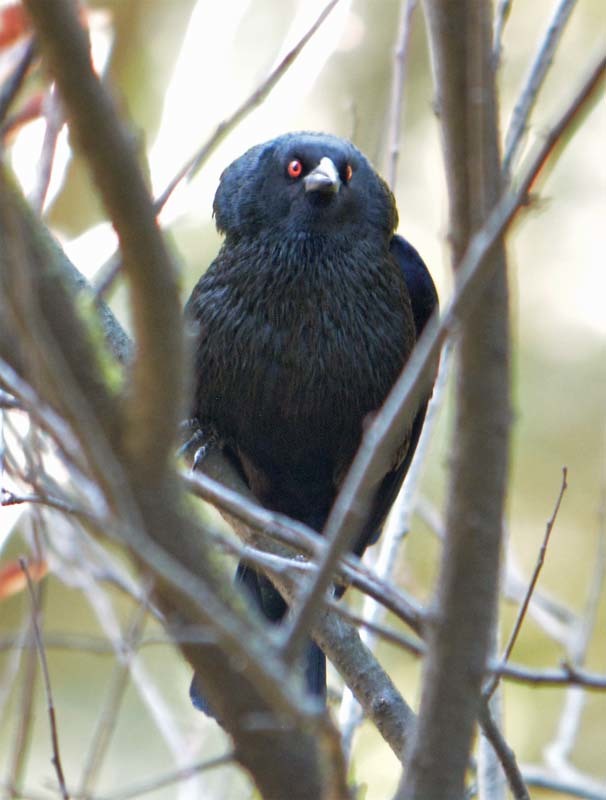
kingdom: Animalia
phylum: Chordata
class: Aves
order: Passeriformes
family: Icteridae
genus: Molothrus
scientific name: Molothrus aeneus
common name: Bronzed cowbird
